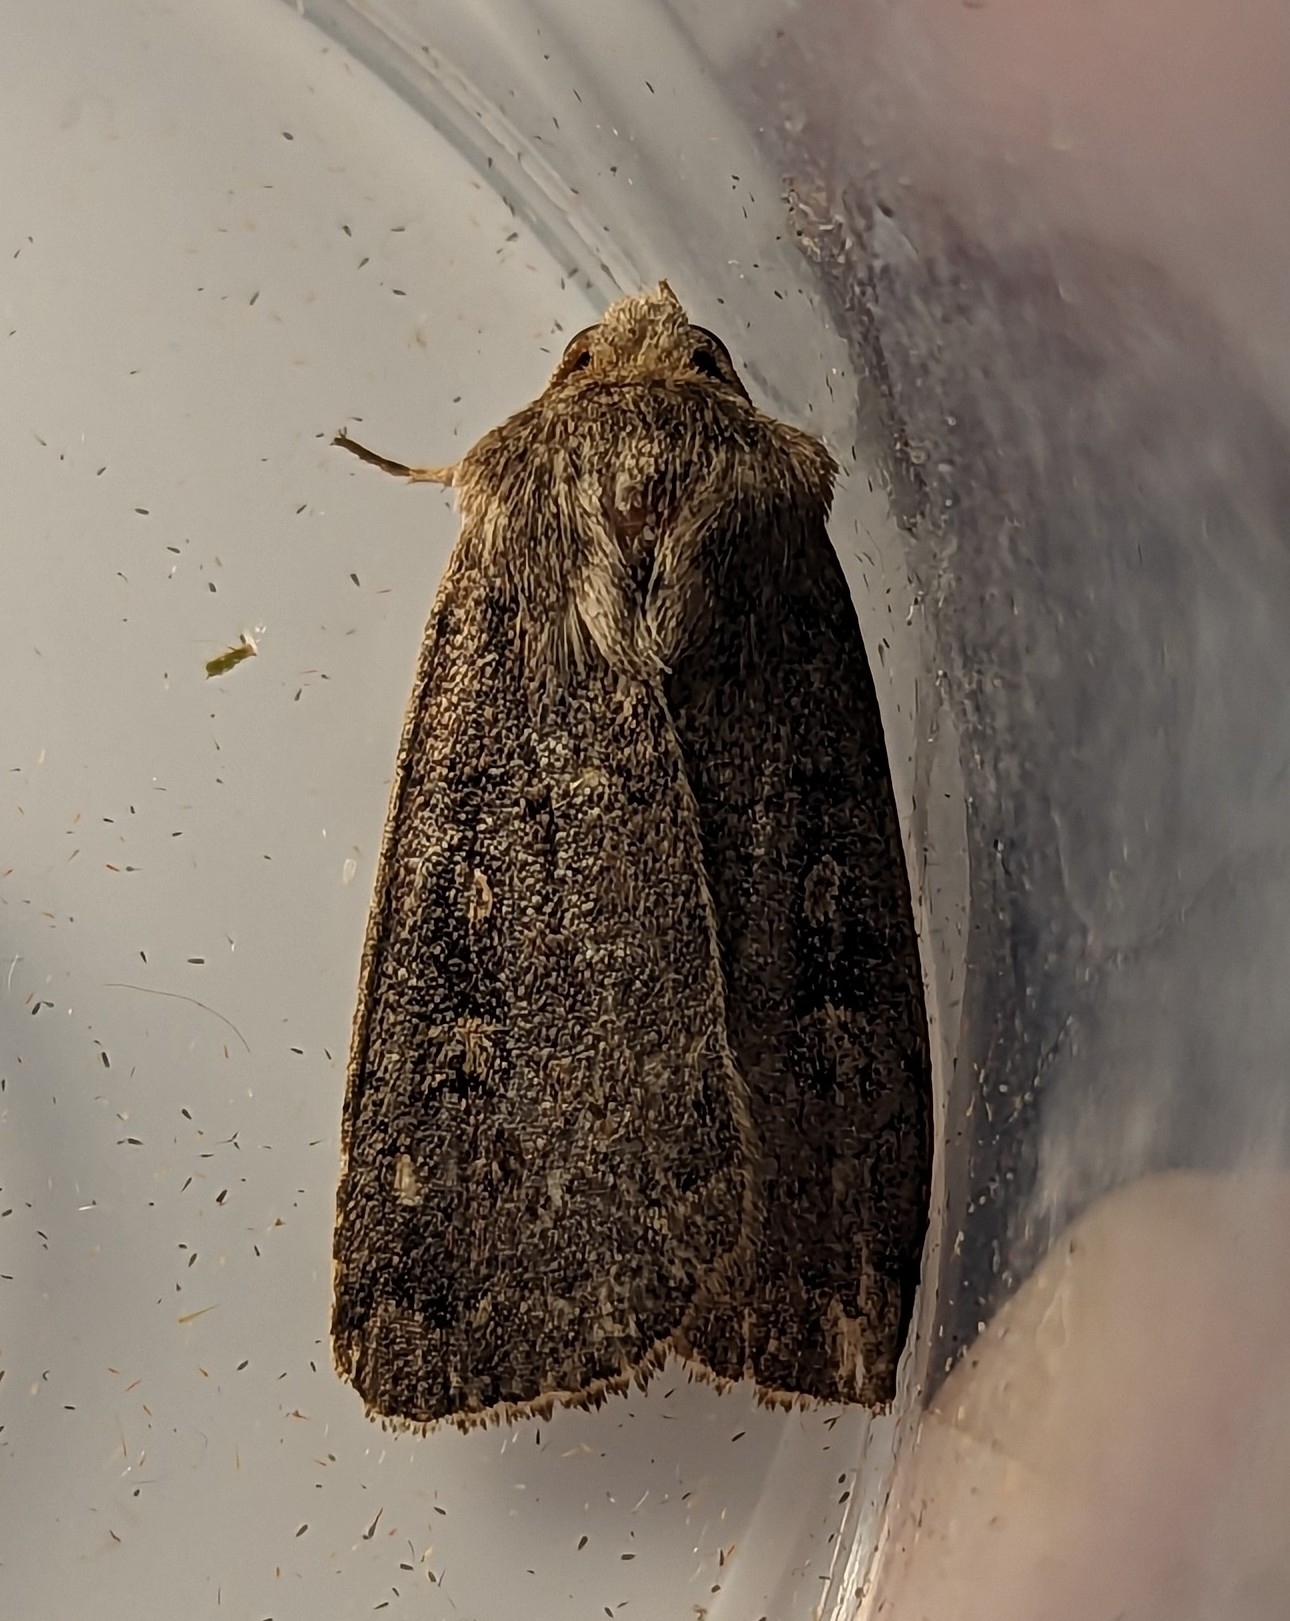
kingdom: Animalia
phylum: Arthropoda
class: Insecta
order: Lepidoptera
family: Noctuidae
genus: Xestia
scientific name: Xestia xanthographa
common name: Square-spot rustic
